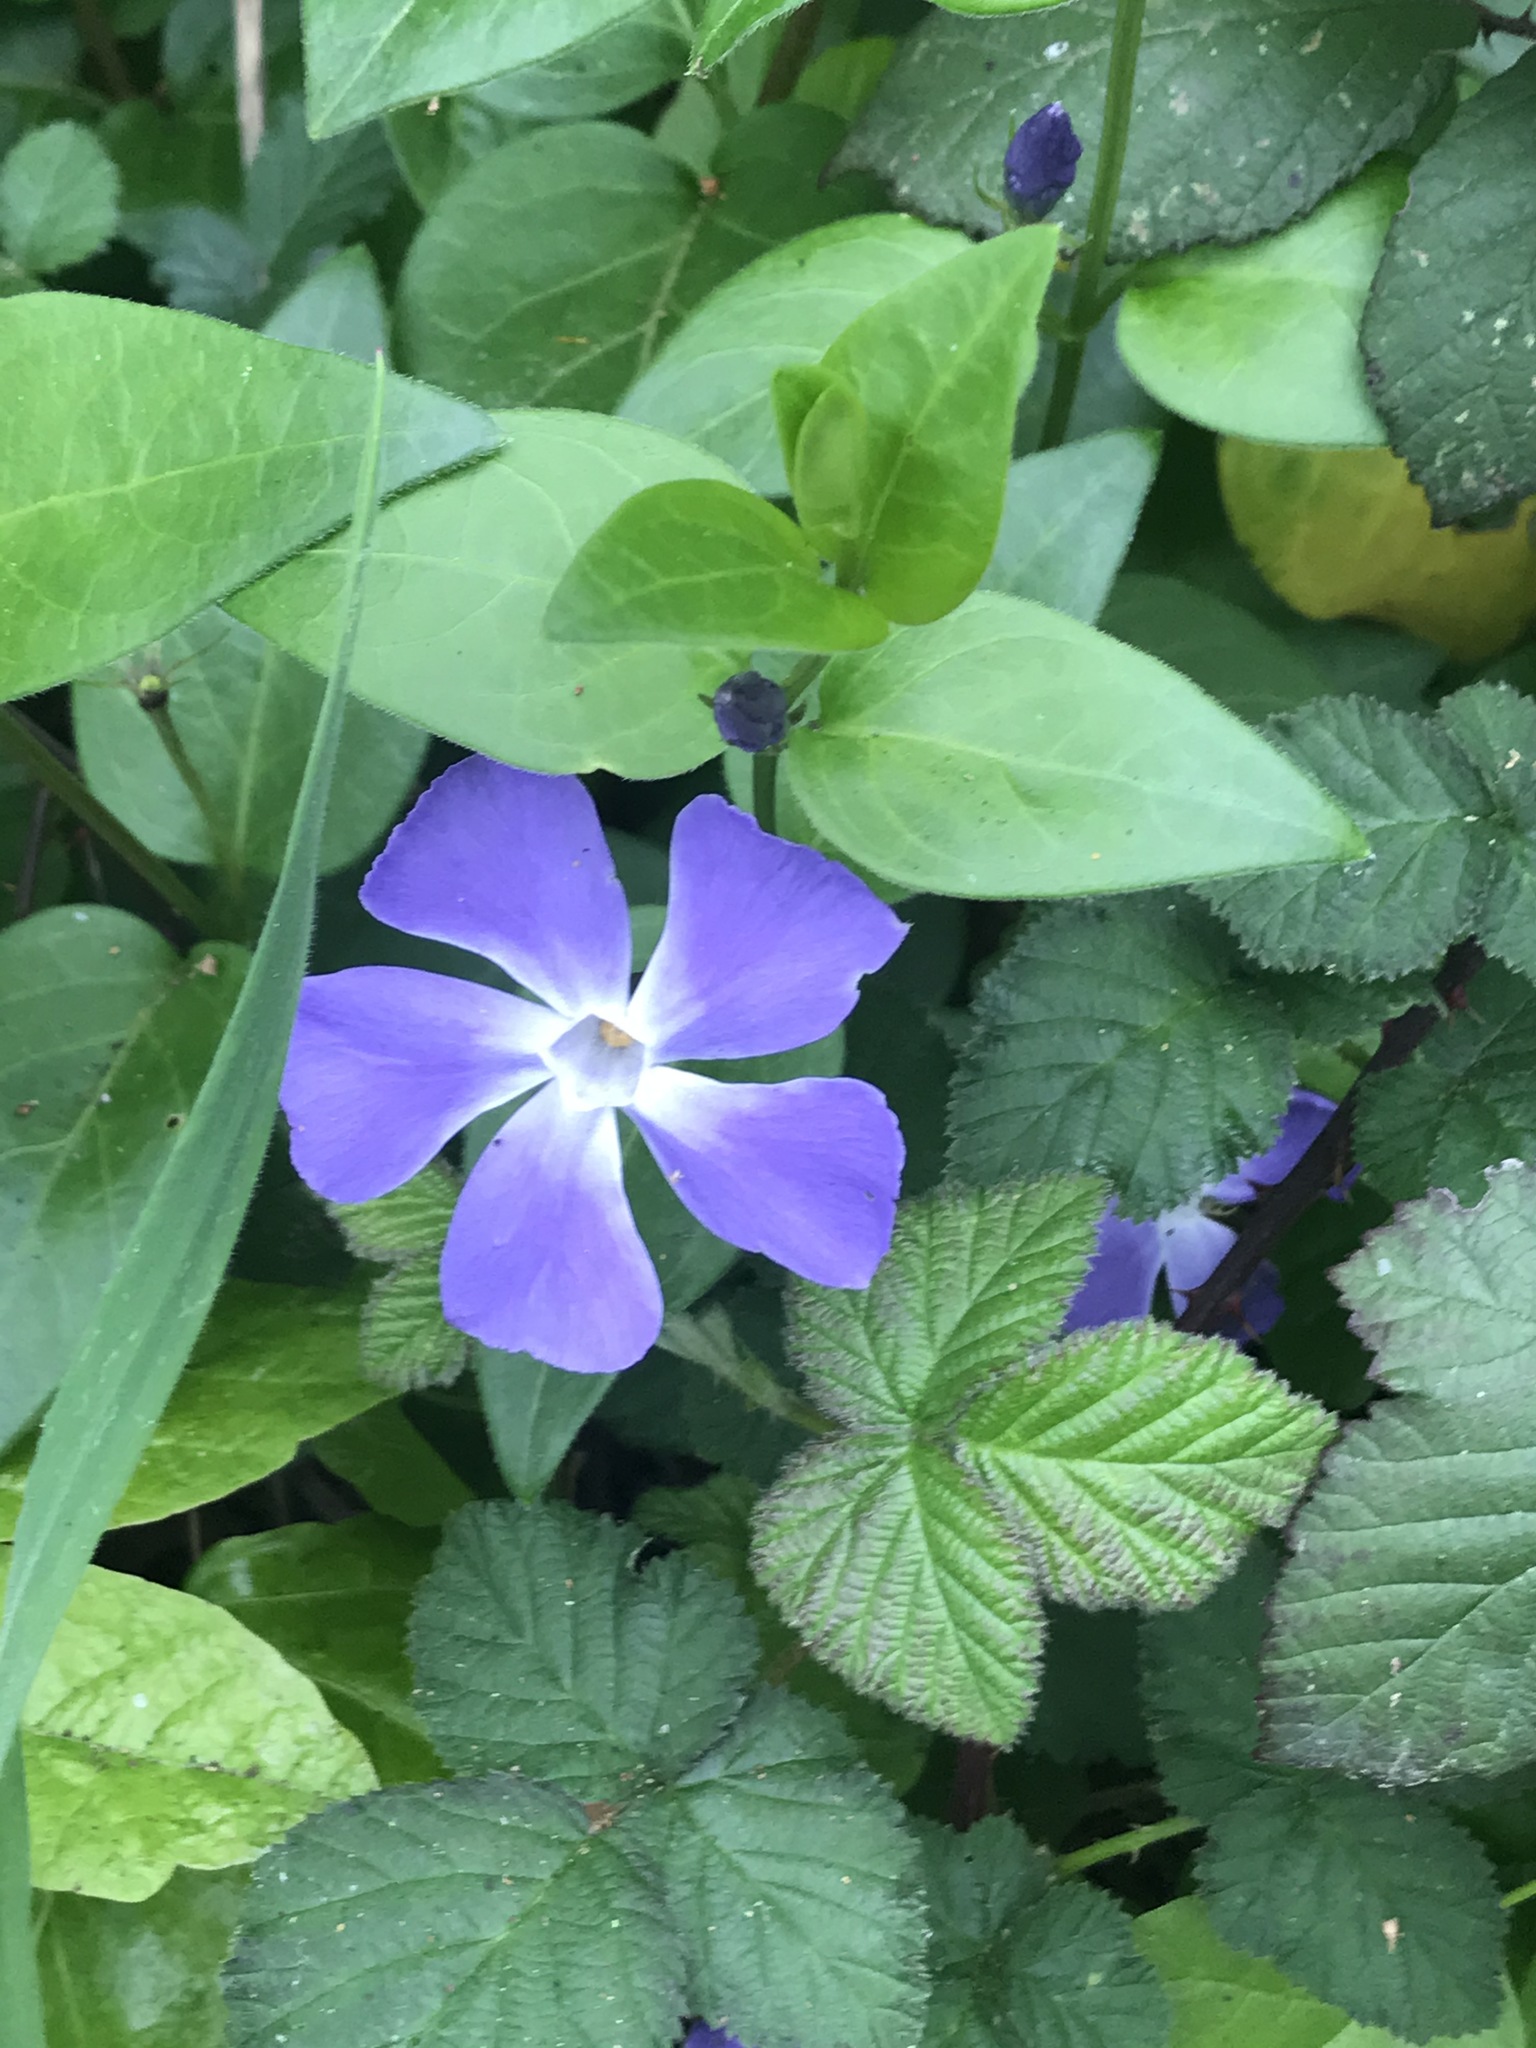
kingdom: Plantae
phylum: Tracheophyta
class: Magnoliopsida
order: Gentianales
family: Apocynaceae
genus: Vinca
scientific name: Vinca major
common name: Greater periwinkle
